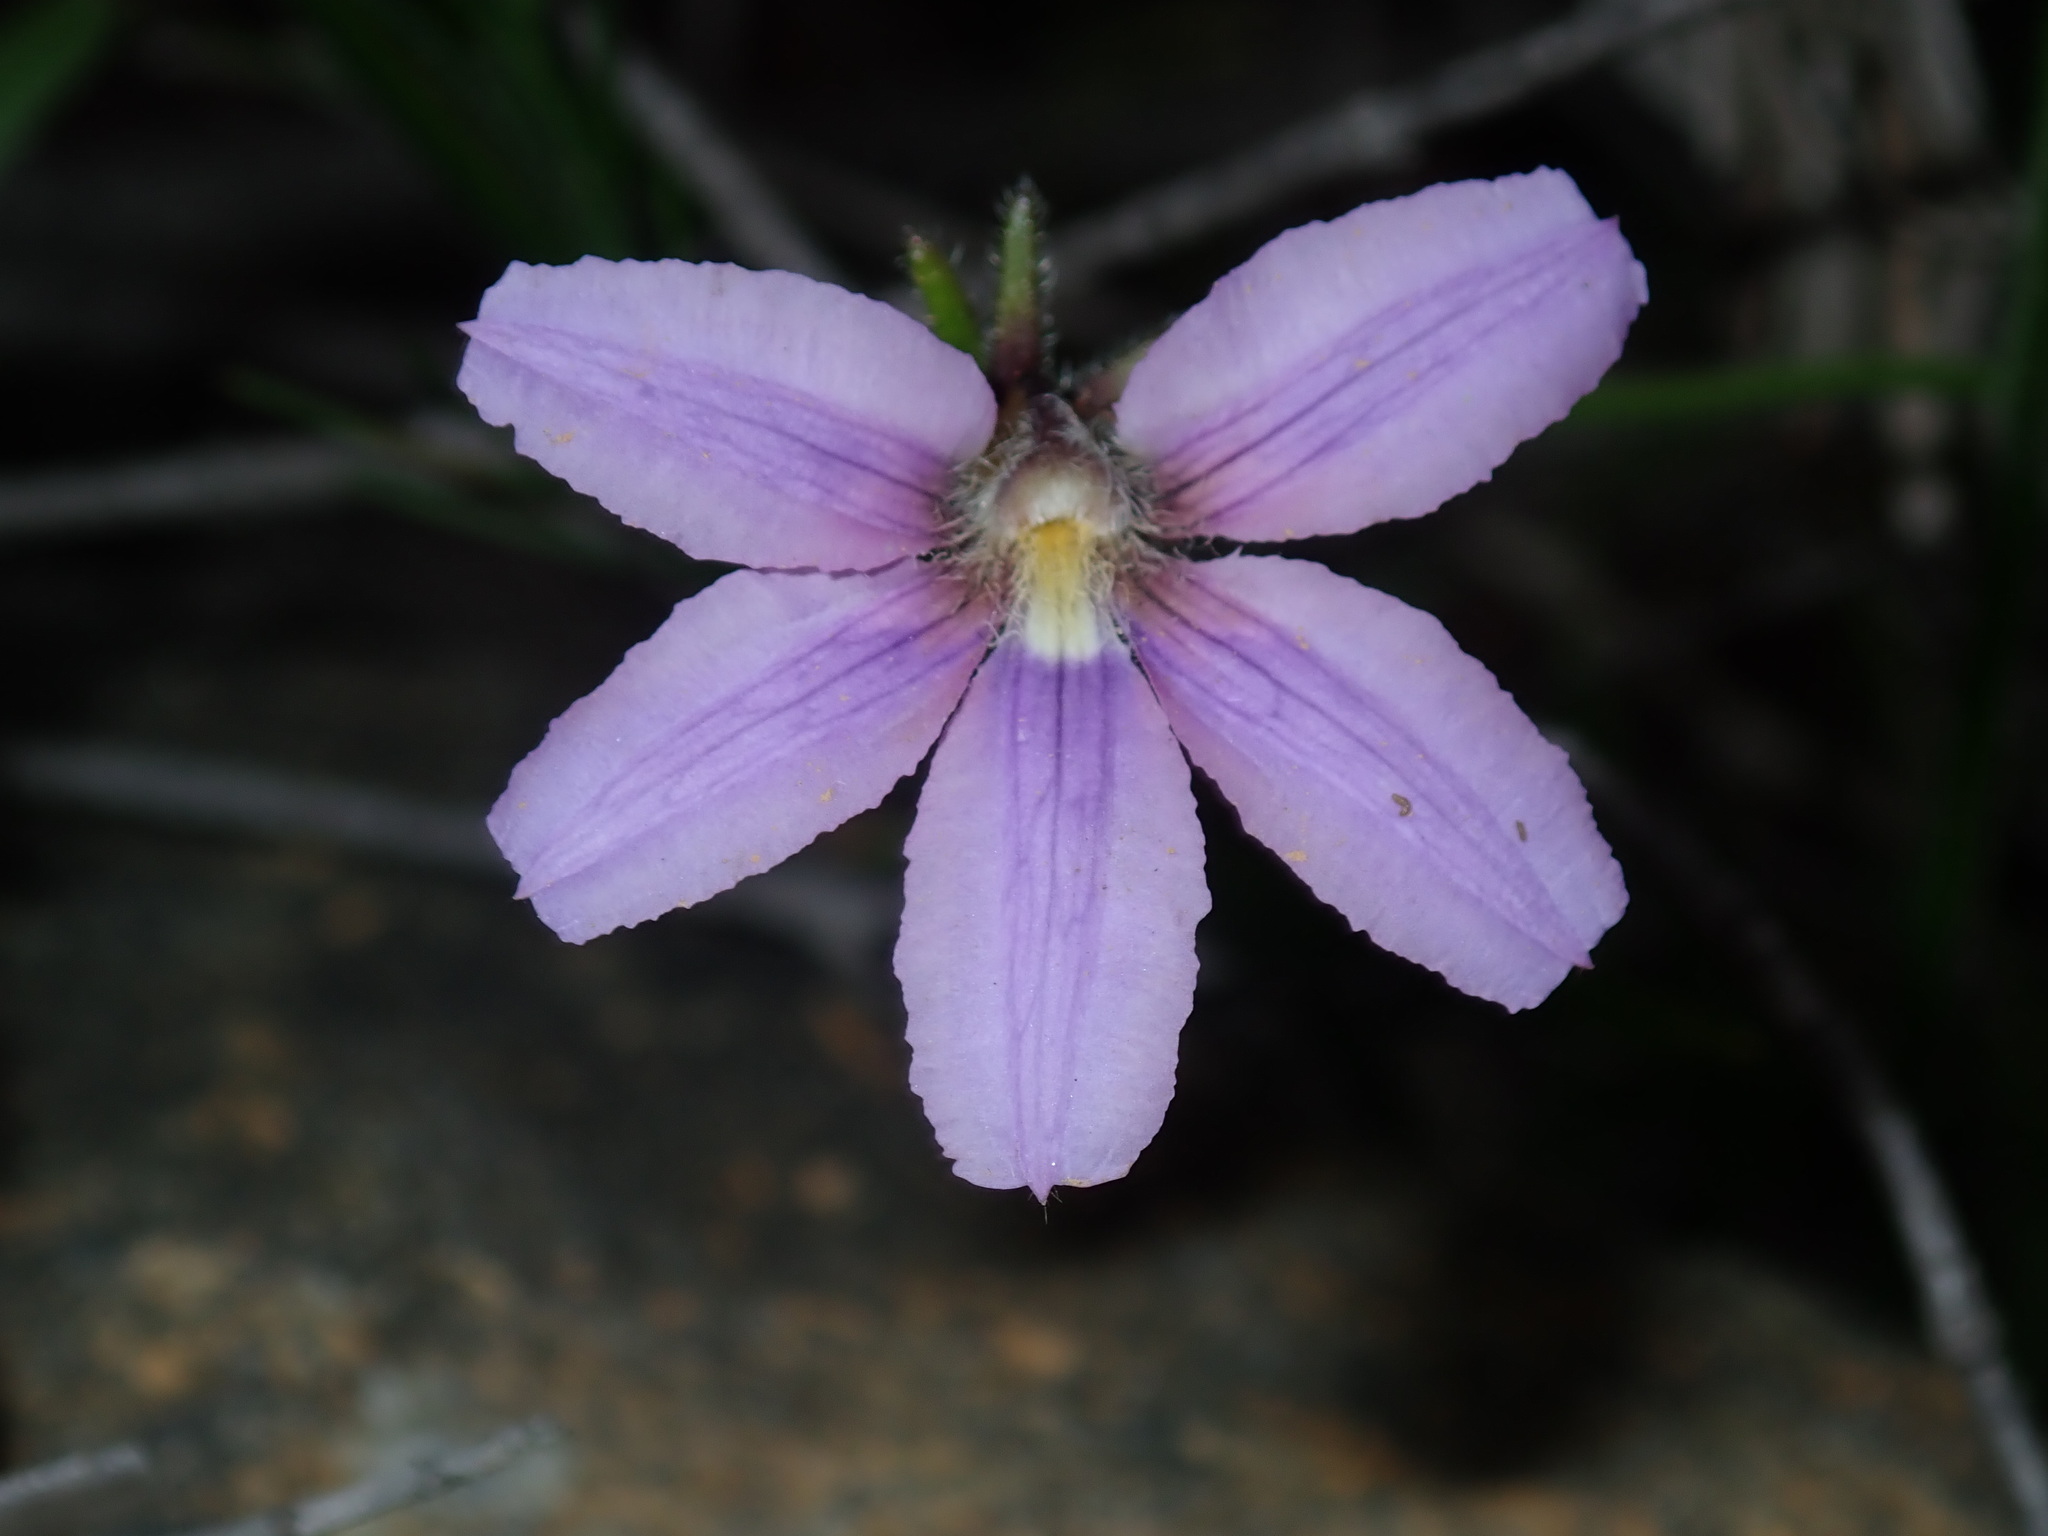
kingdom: Plantae
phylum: Tracheophyta
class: Magnoliopsida
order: Asterales
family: Goodeniaceae
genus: Scaevola
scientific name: Scaevola ramosissima
